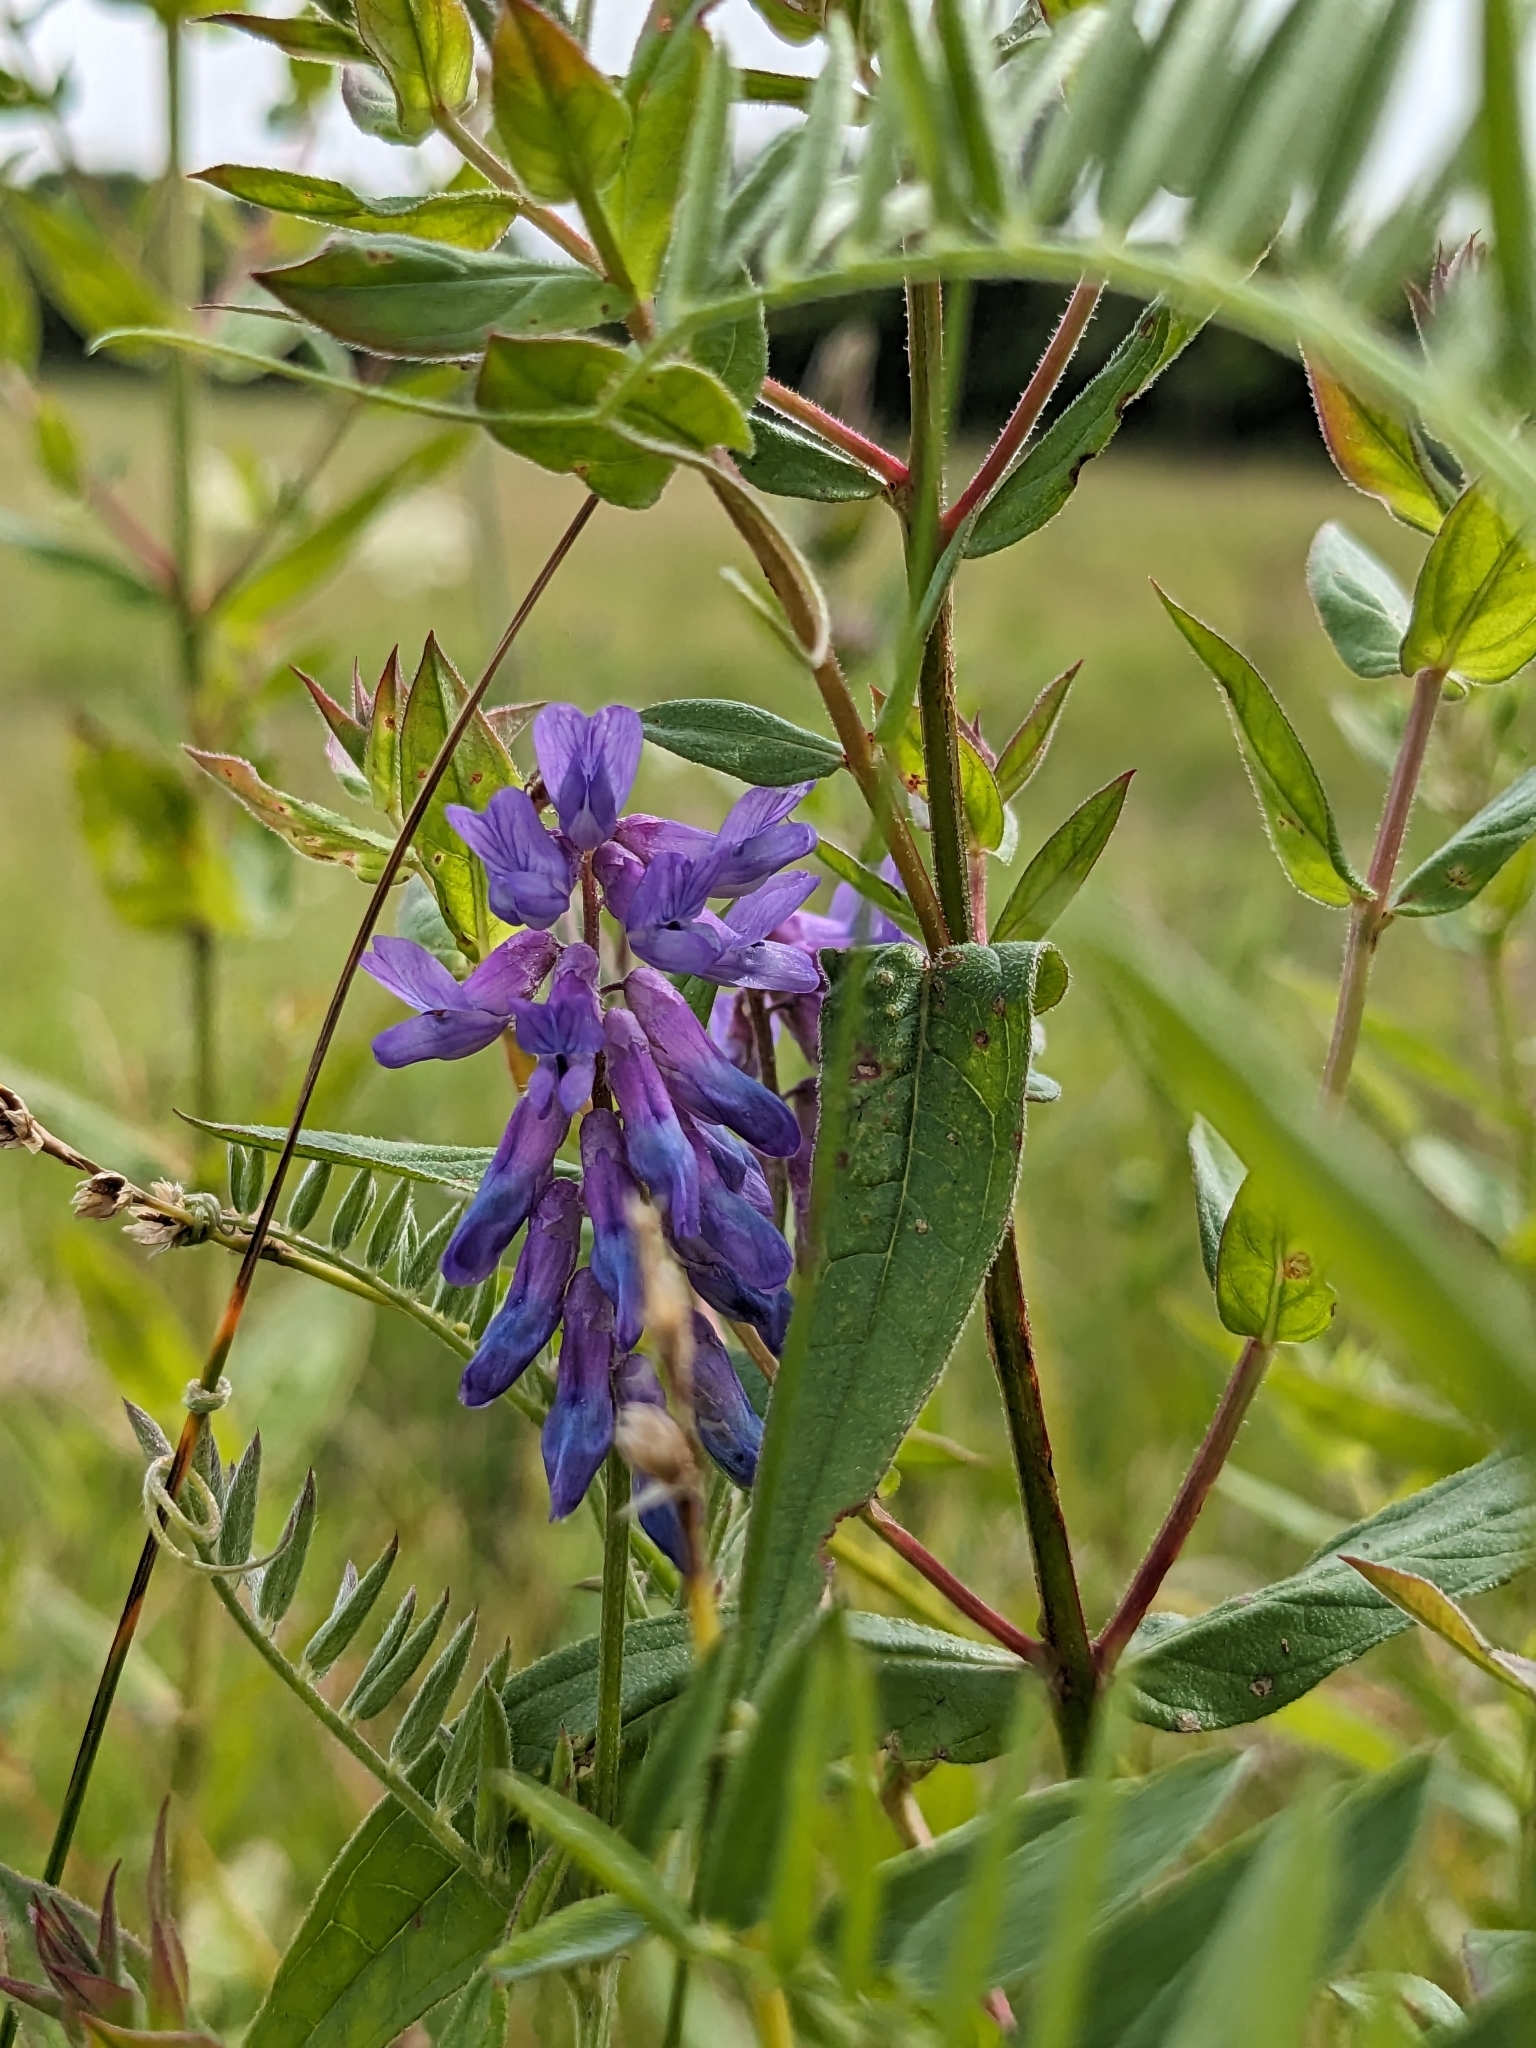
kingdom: Plantae
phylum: Tracheophyta
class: Magnoliopsida
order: Fabales
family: Fabaceae
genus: Vicia
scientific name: Vicia cracca
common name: Bird vetch
